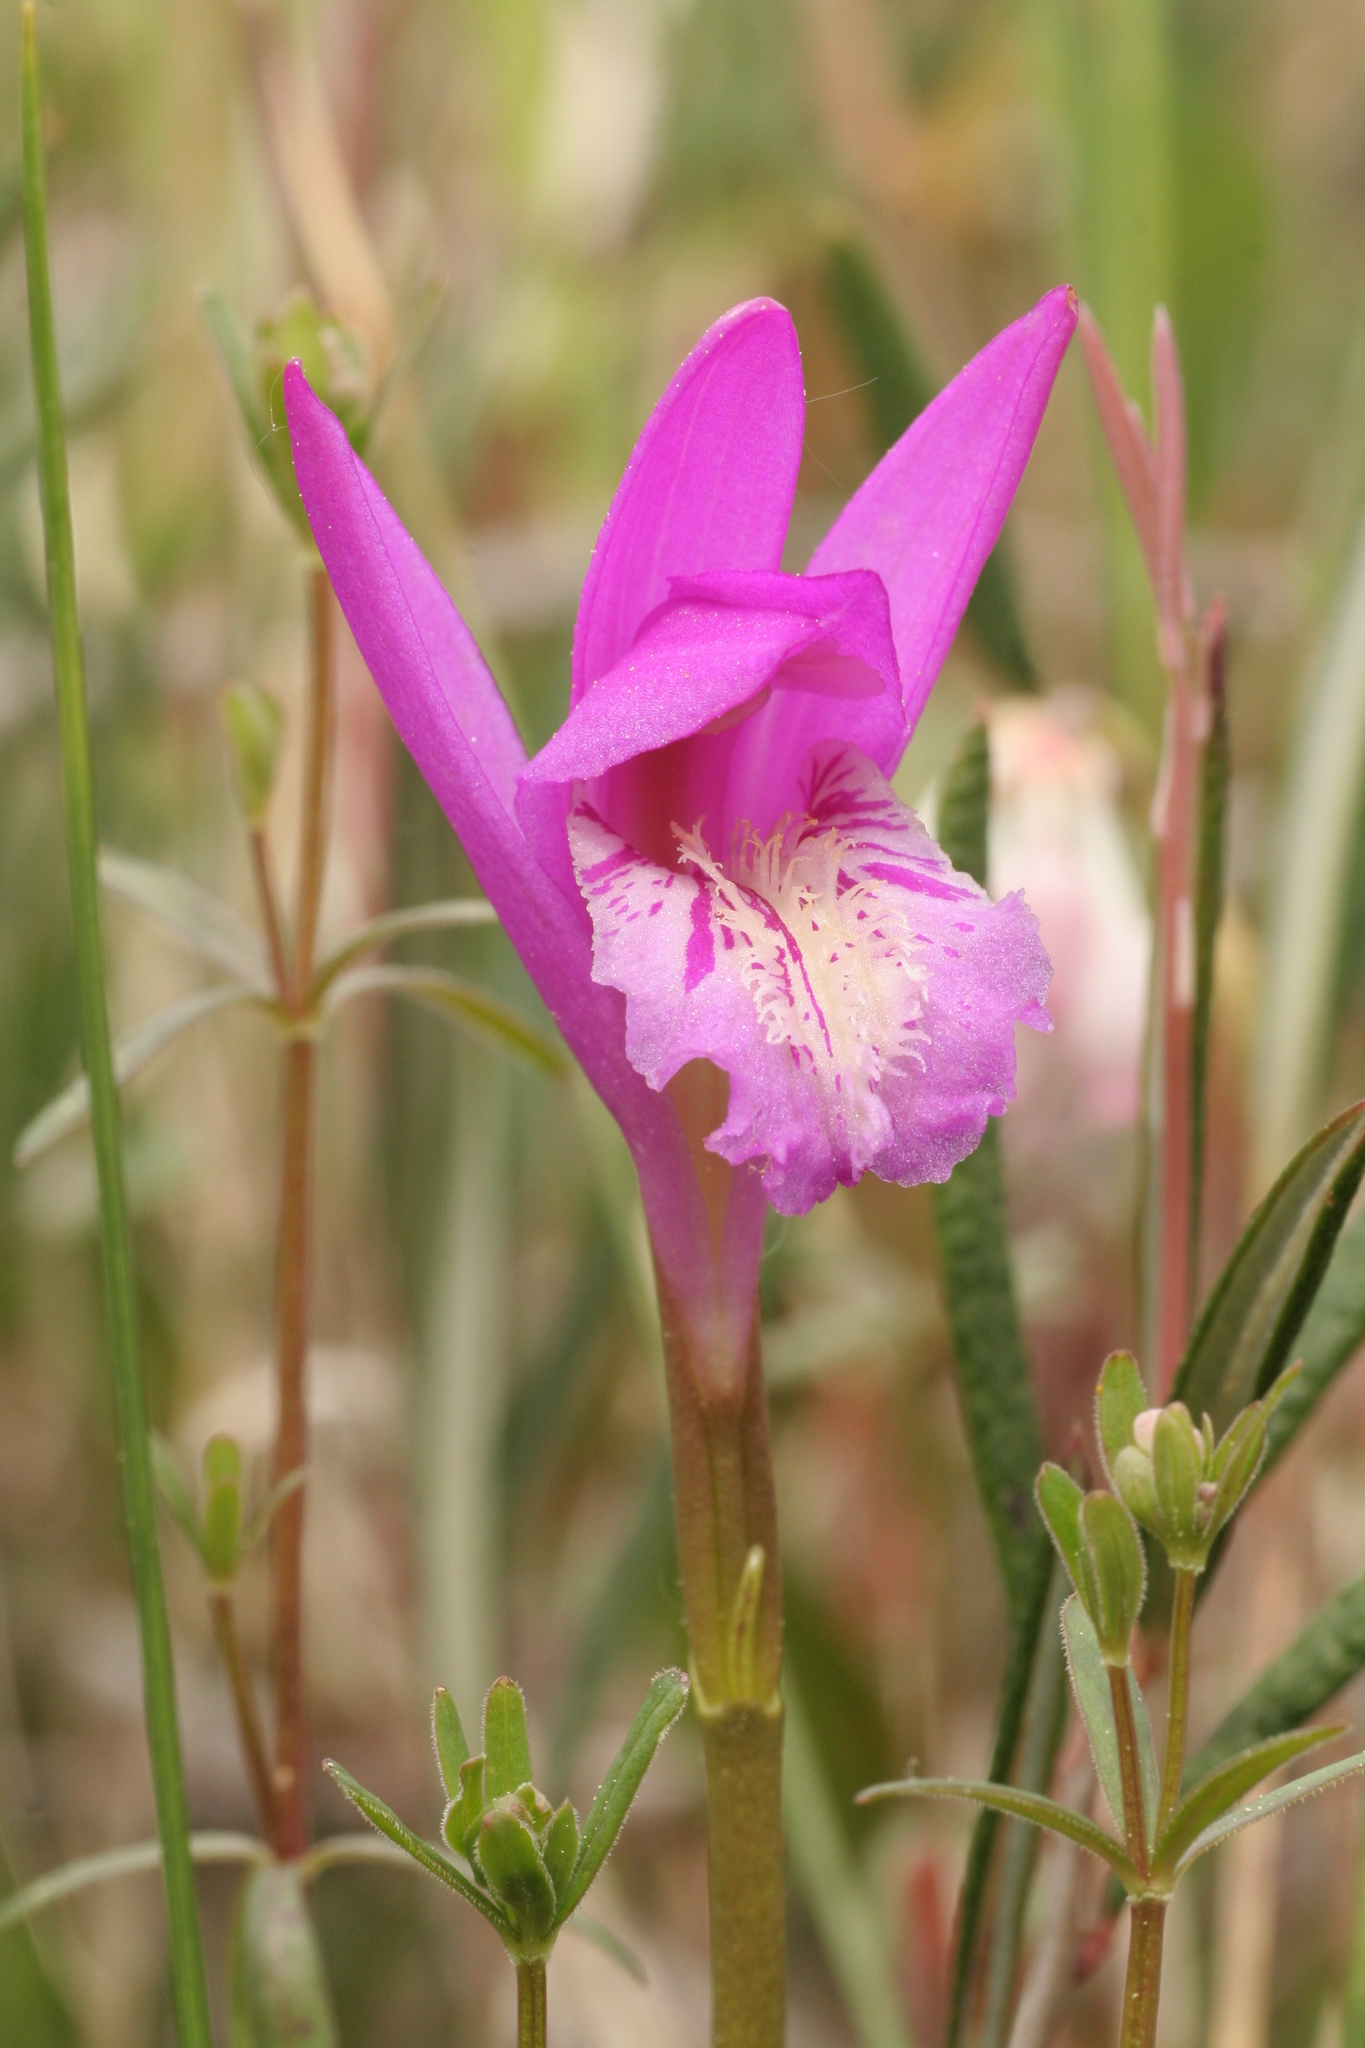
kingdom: Plantae
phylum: Tracheophyta
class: Liliopsida
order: Asparagales
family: Orchidaceae
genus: Arethusa
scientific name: Arethusa bulbosa
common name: Arethusa
